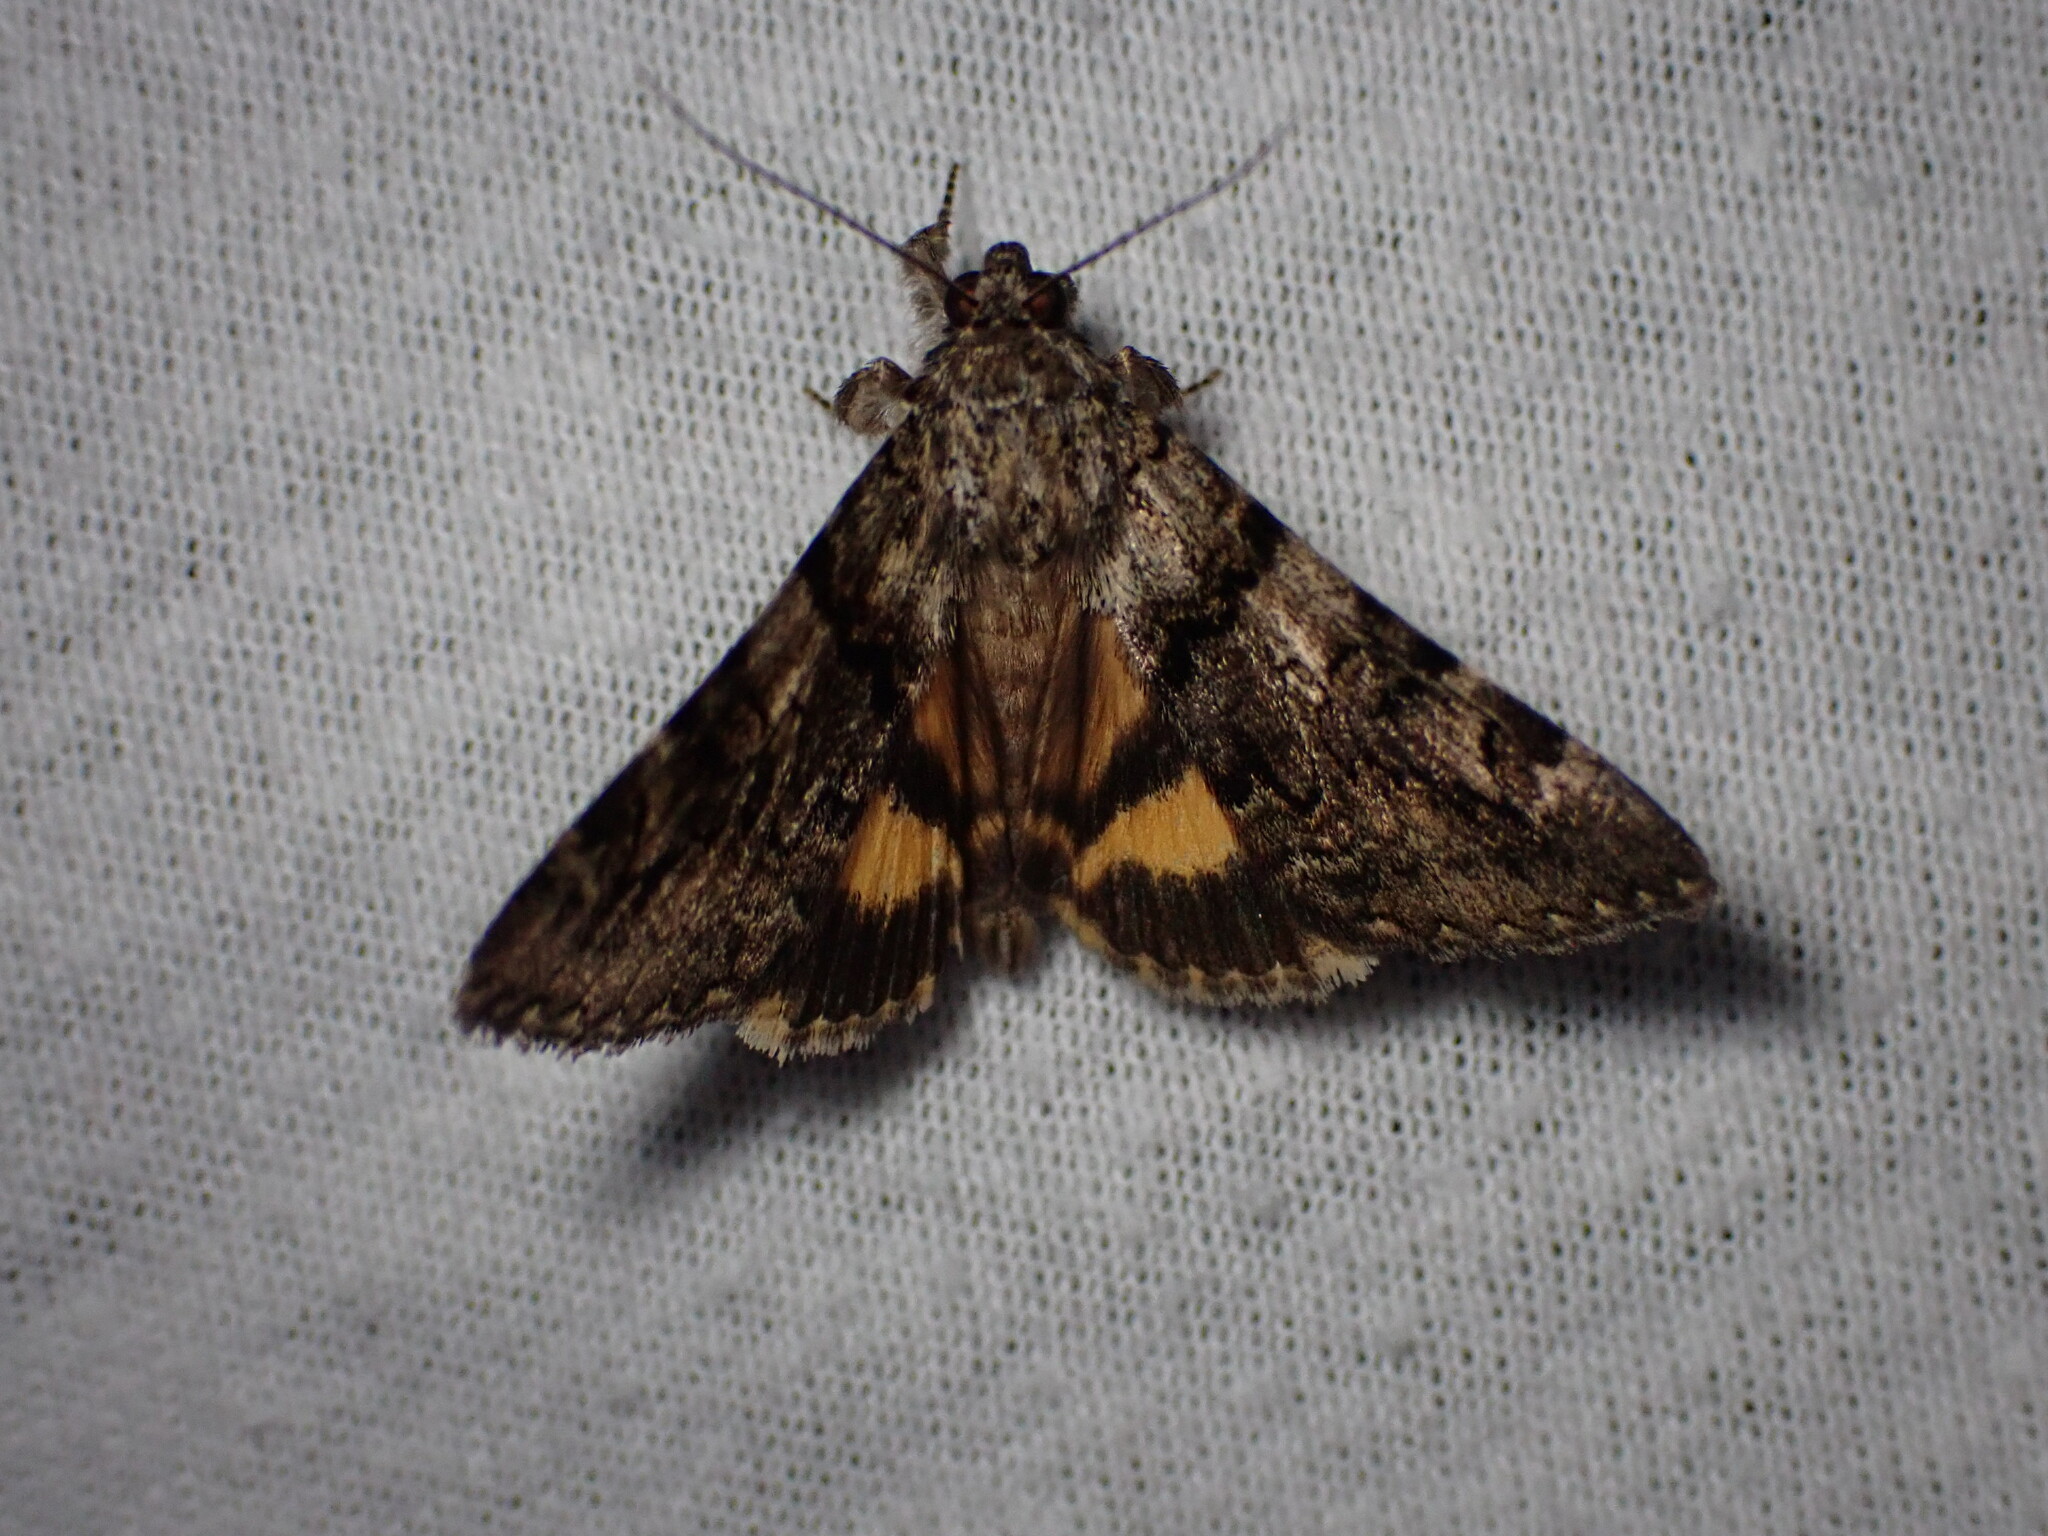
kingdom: Animalia
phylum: Arthropoda
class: Insecta
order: Lepidoptera
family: Erebidae
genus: Catocala
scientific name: Catocala nymphagoga
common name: Oak yellow underwing
